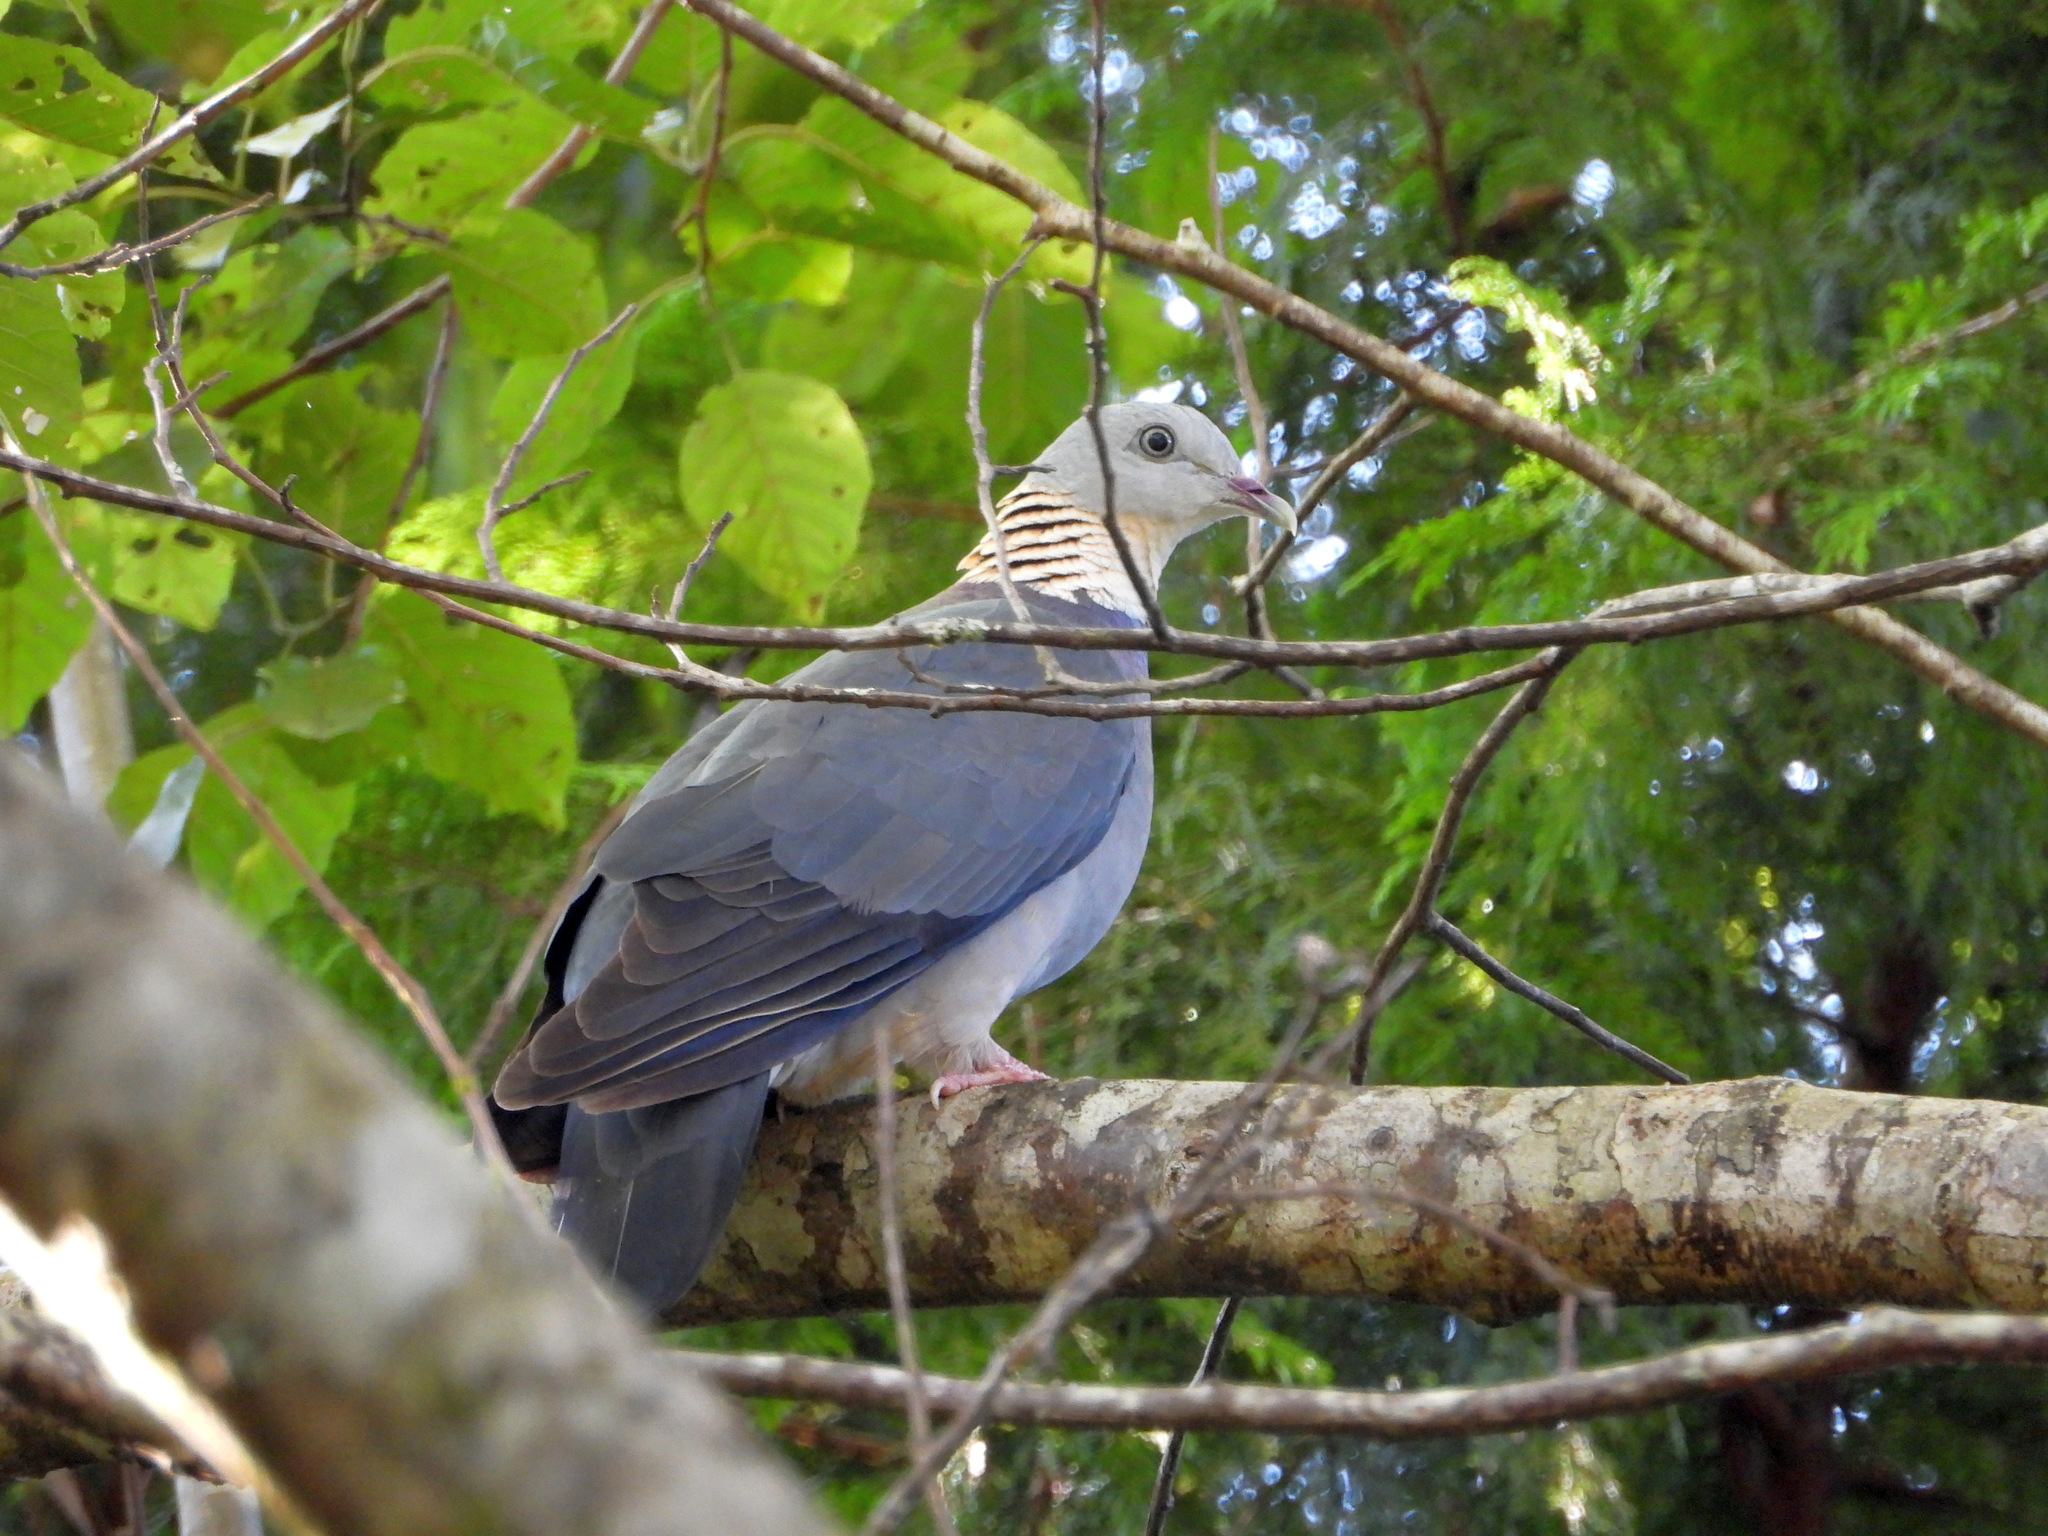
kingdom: Animalia
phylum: Chordata
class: Aves
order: Columbiformes
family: Columbidae
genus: Columba
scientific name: Columba pulchricollis
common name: Ashy wood pigeon
